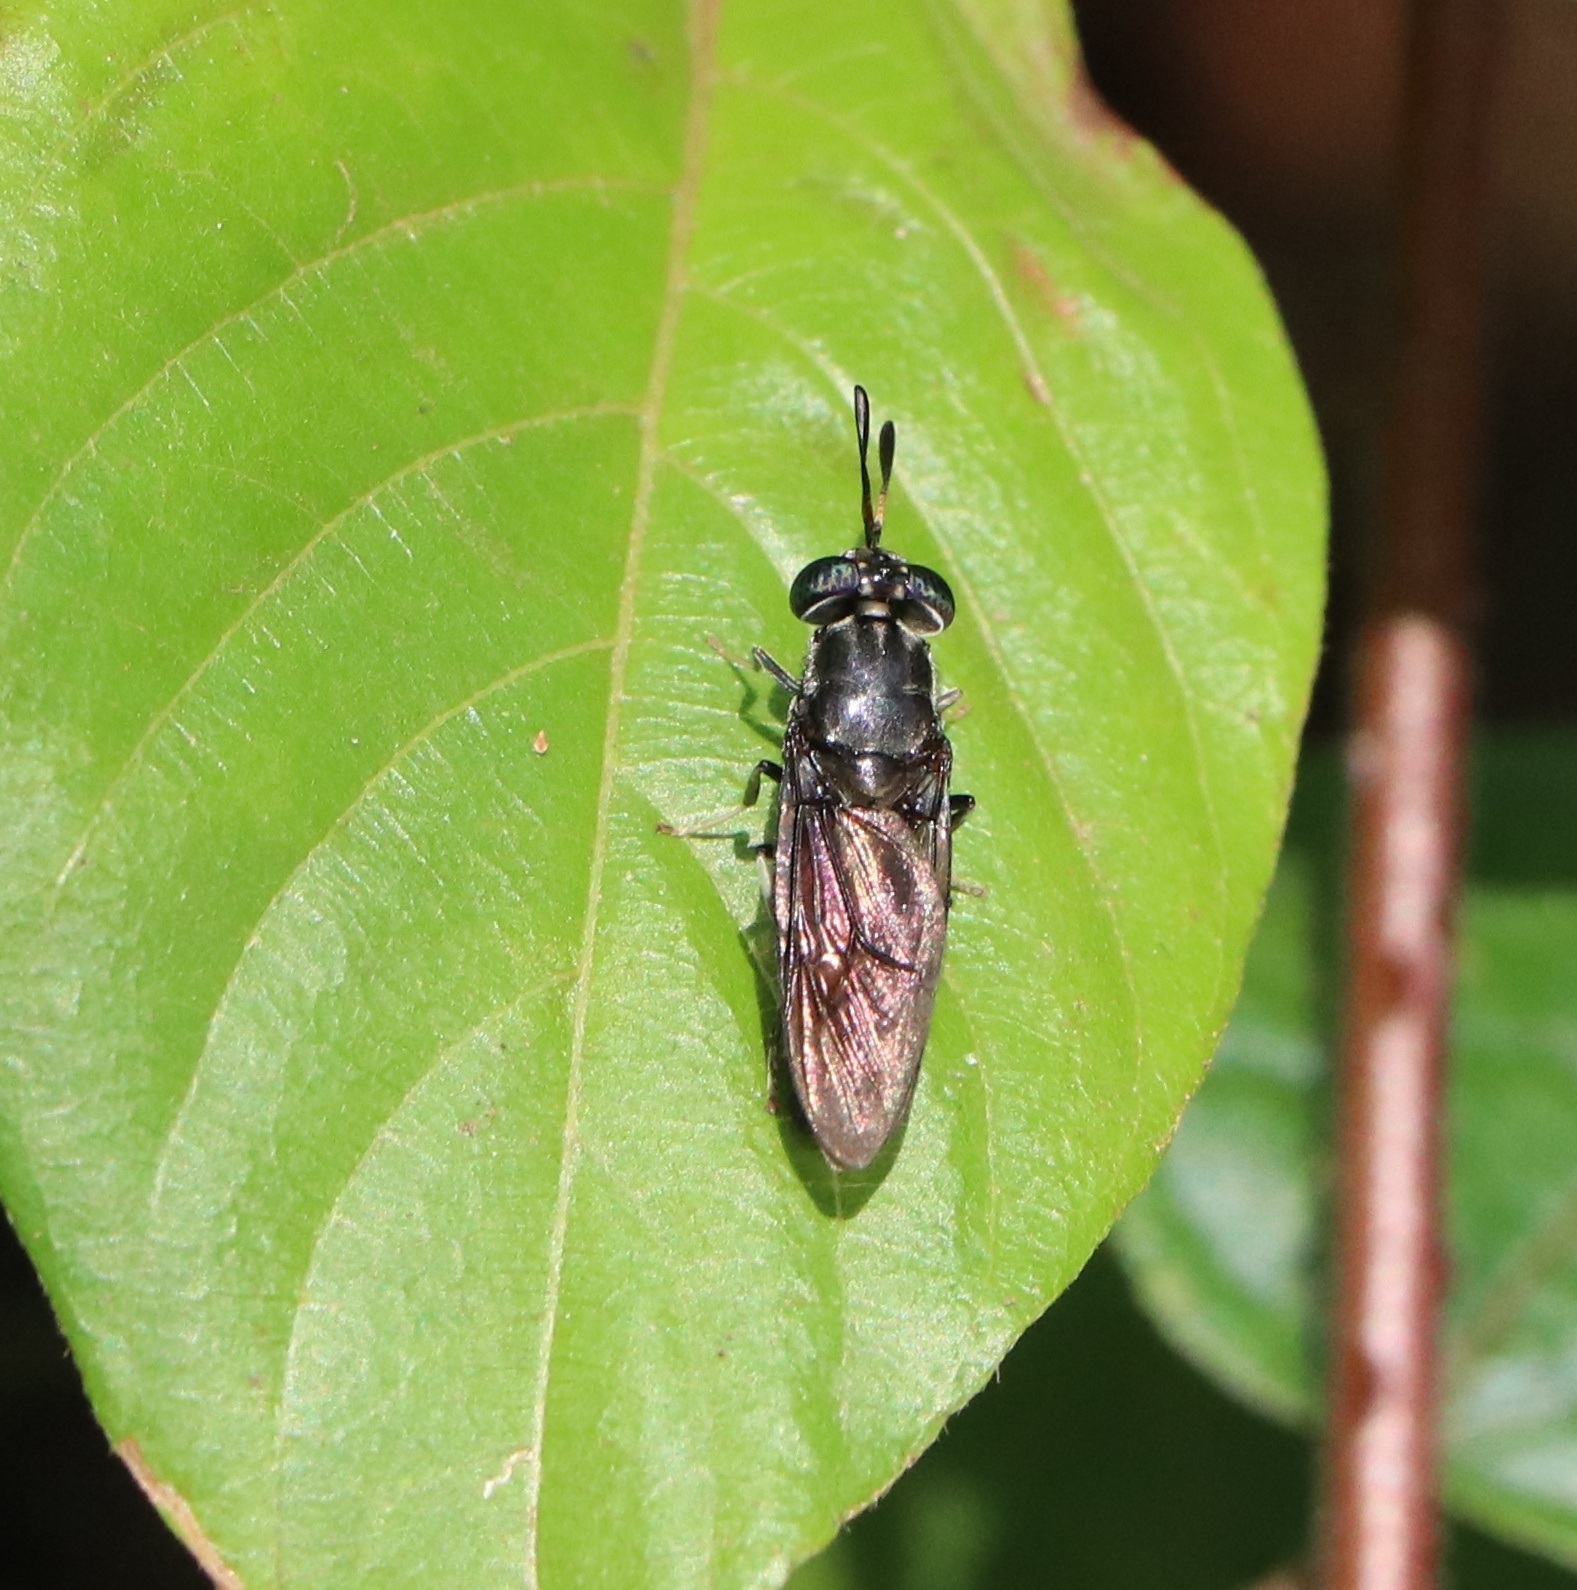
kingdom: Animalia
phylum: Arthropoda
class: Insecta
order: Diptera
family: Stratiomyidae
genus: Hermetia
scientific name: Hermetia illucens
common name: Black soldier fly
